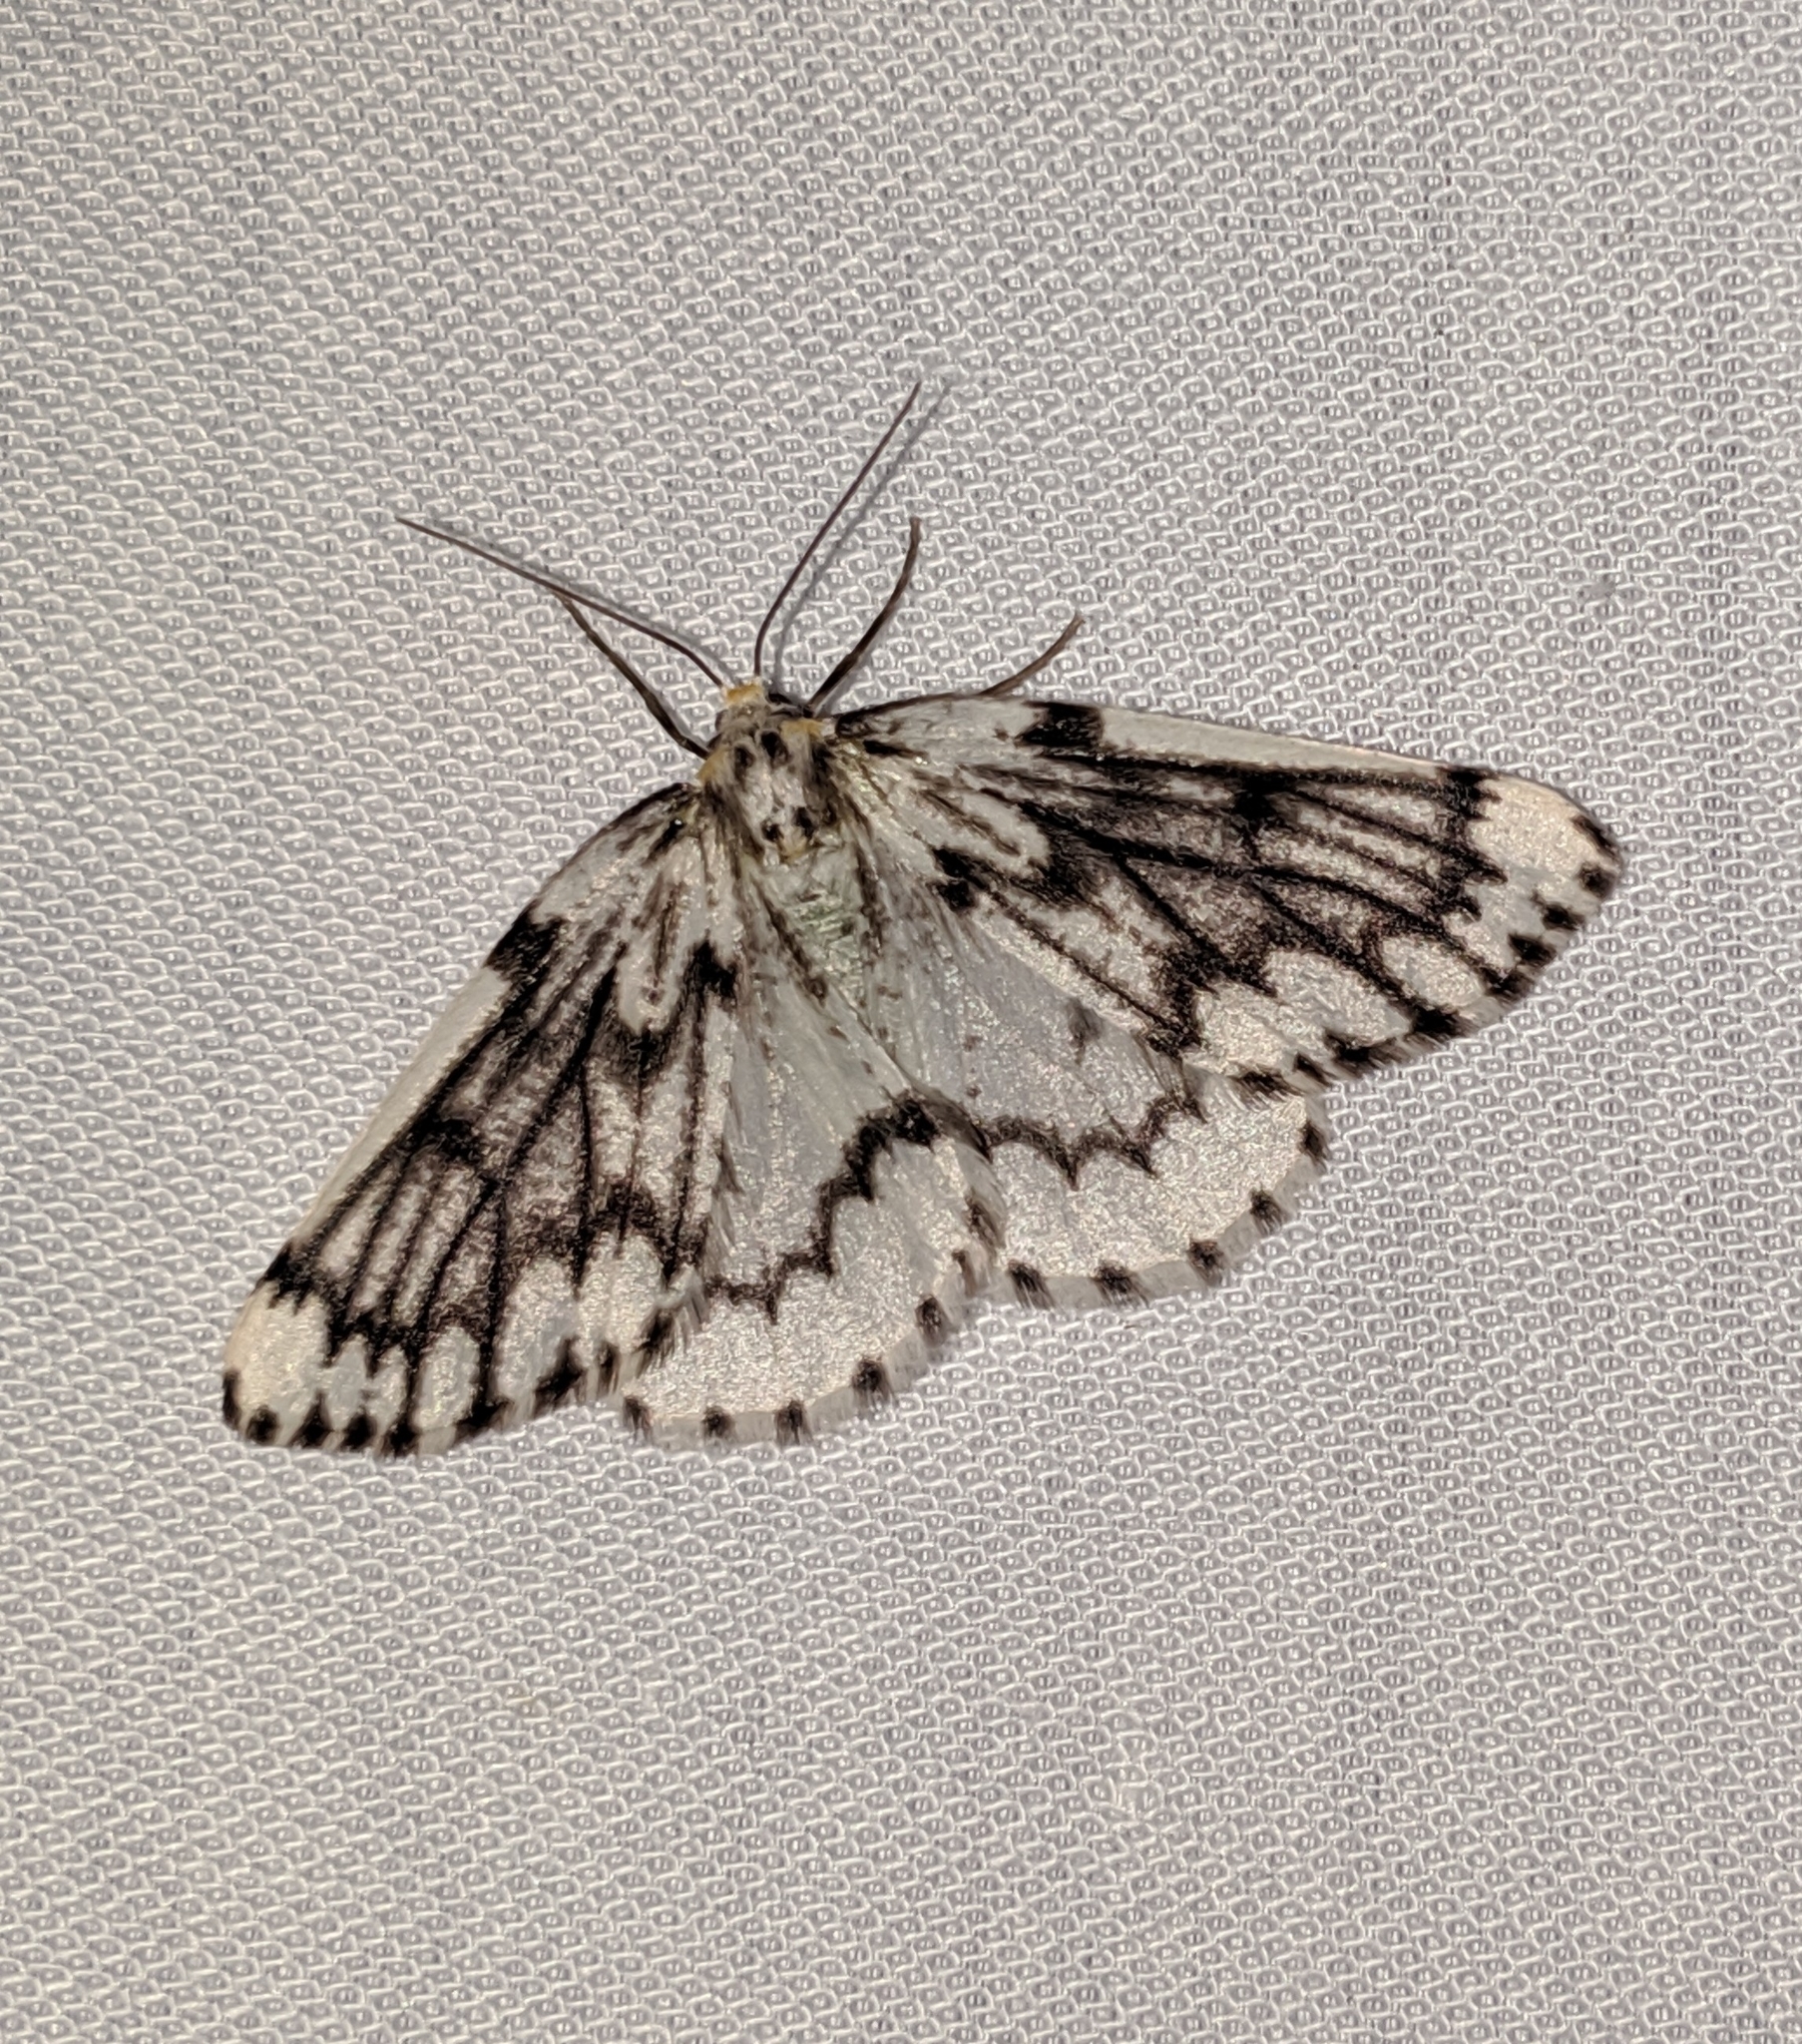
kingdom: Animalia
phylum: Arthropoda
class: Insecta
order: Lepidoptera
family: Geometridae
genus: Nepytia
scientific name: Nepytia phantasmaria
